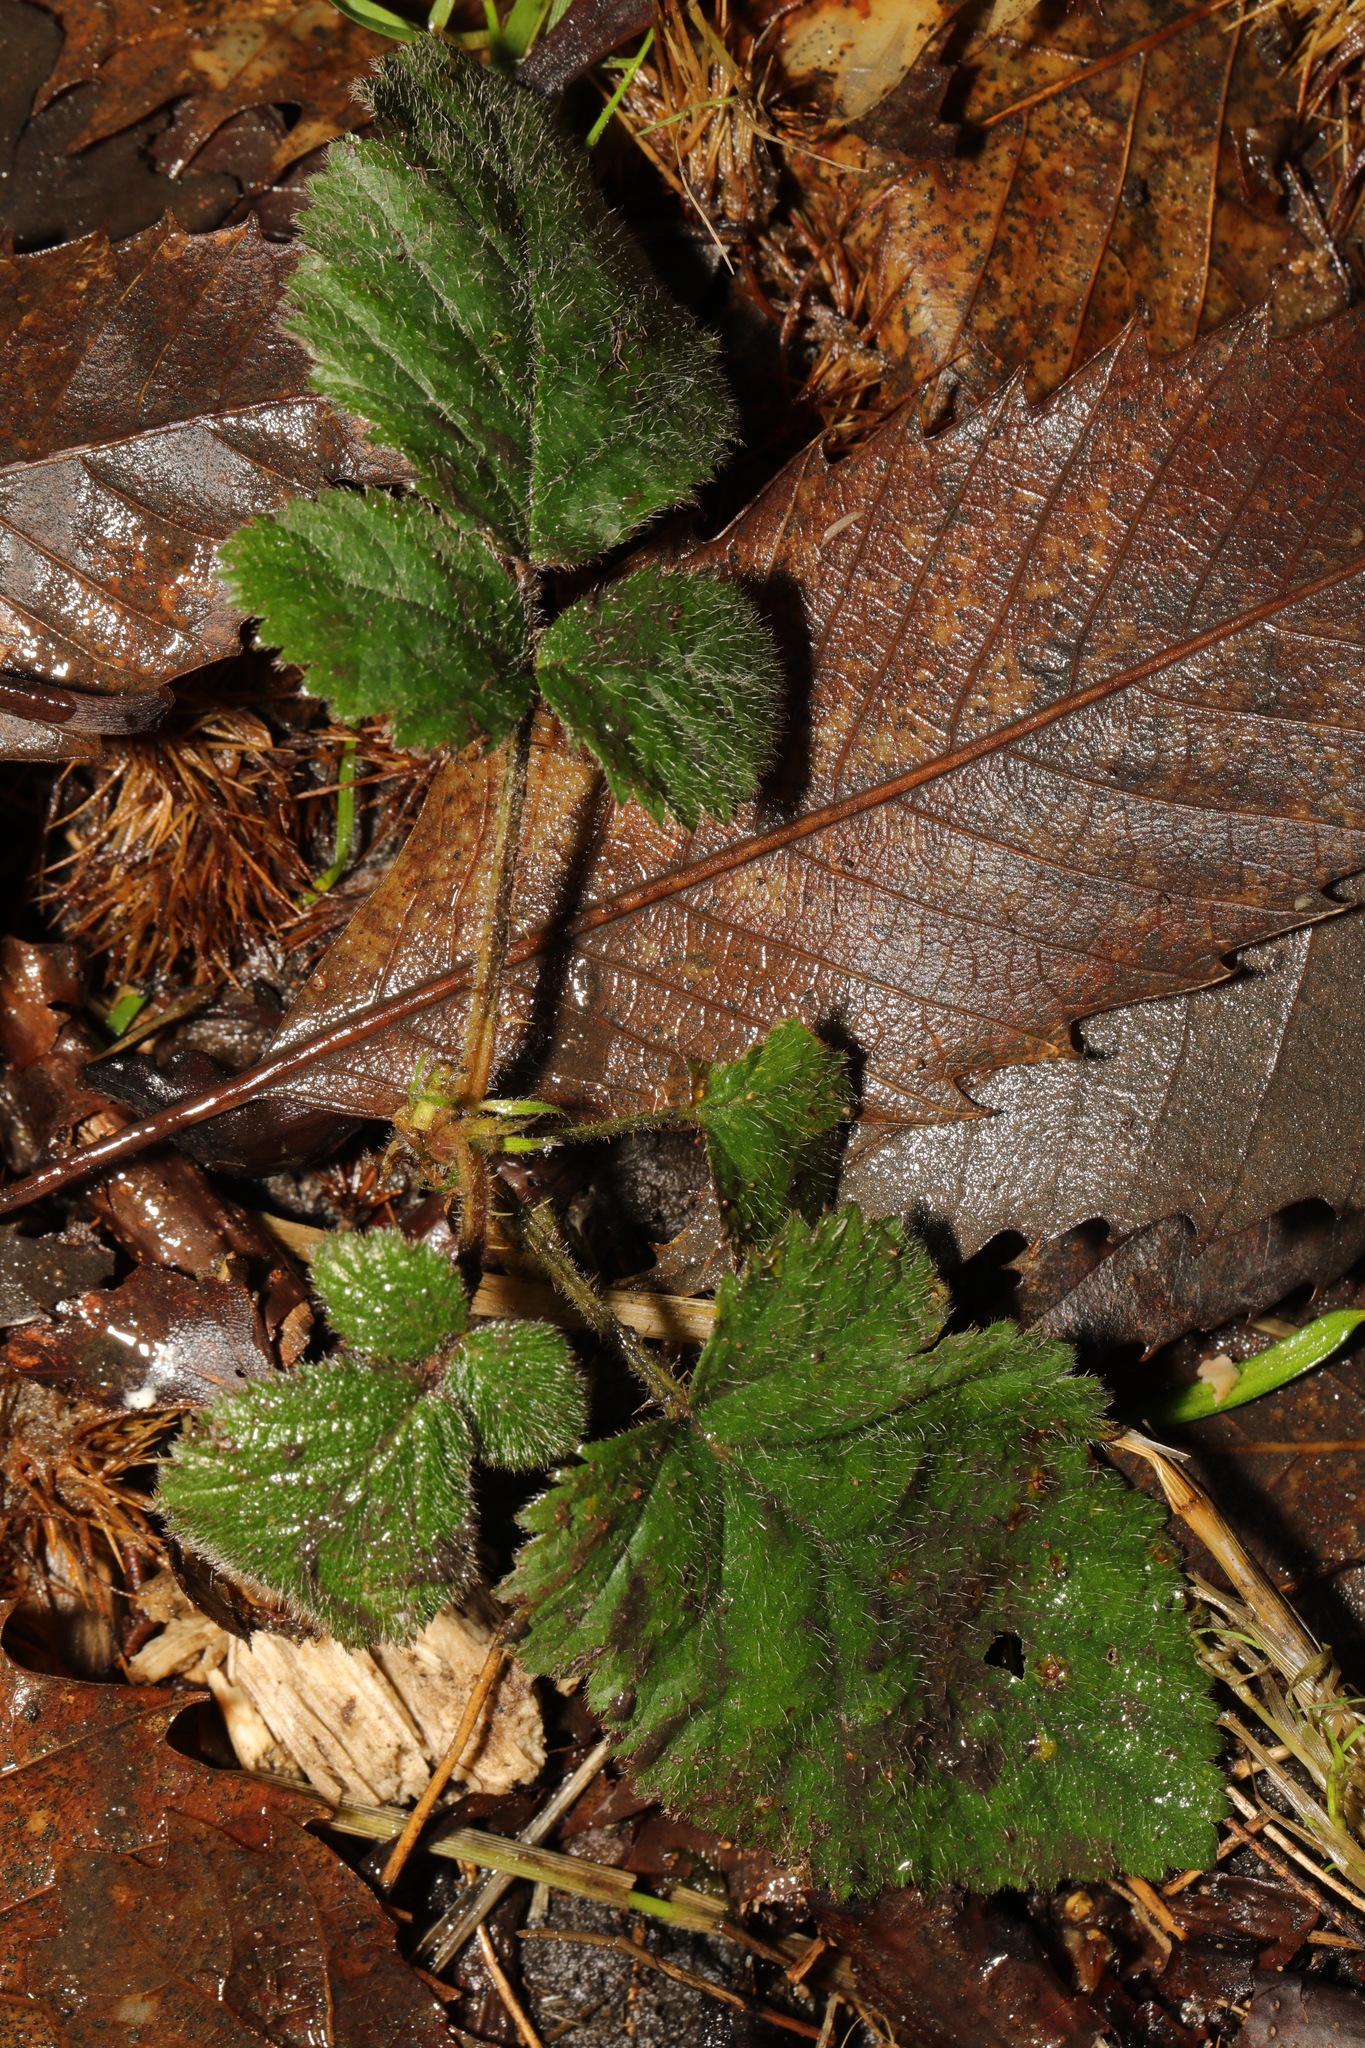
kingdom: Plantae
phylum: Tracheophyta
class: Magnoliopsida
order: Rosales
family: Rosaceae
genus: Geum
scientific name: Geum urbanum
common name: Wood avens
